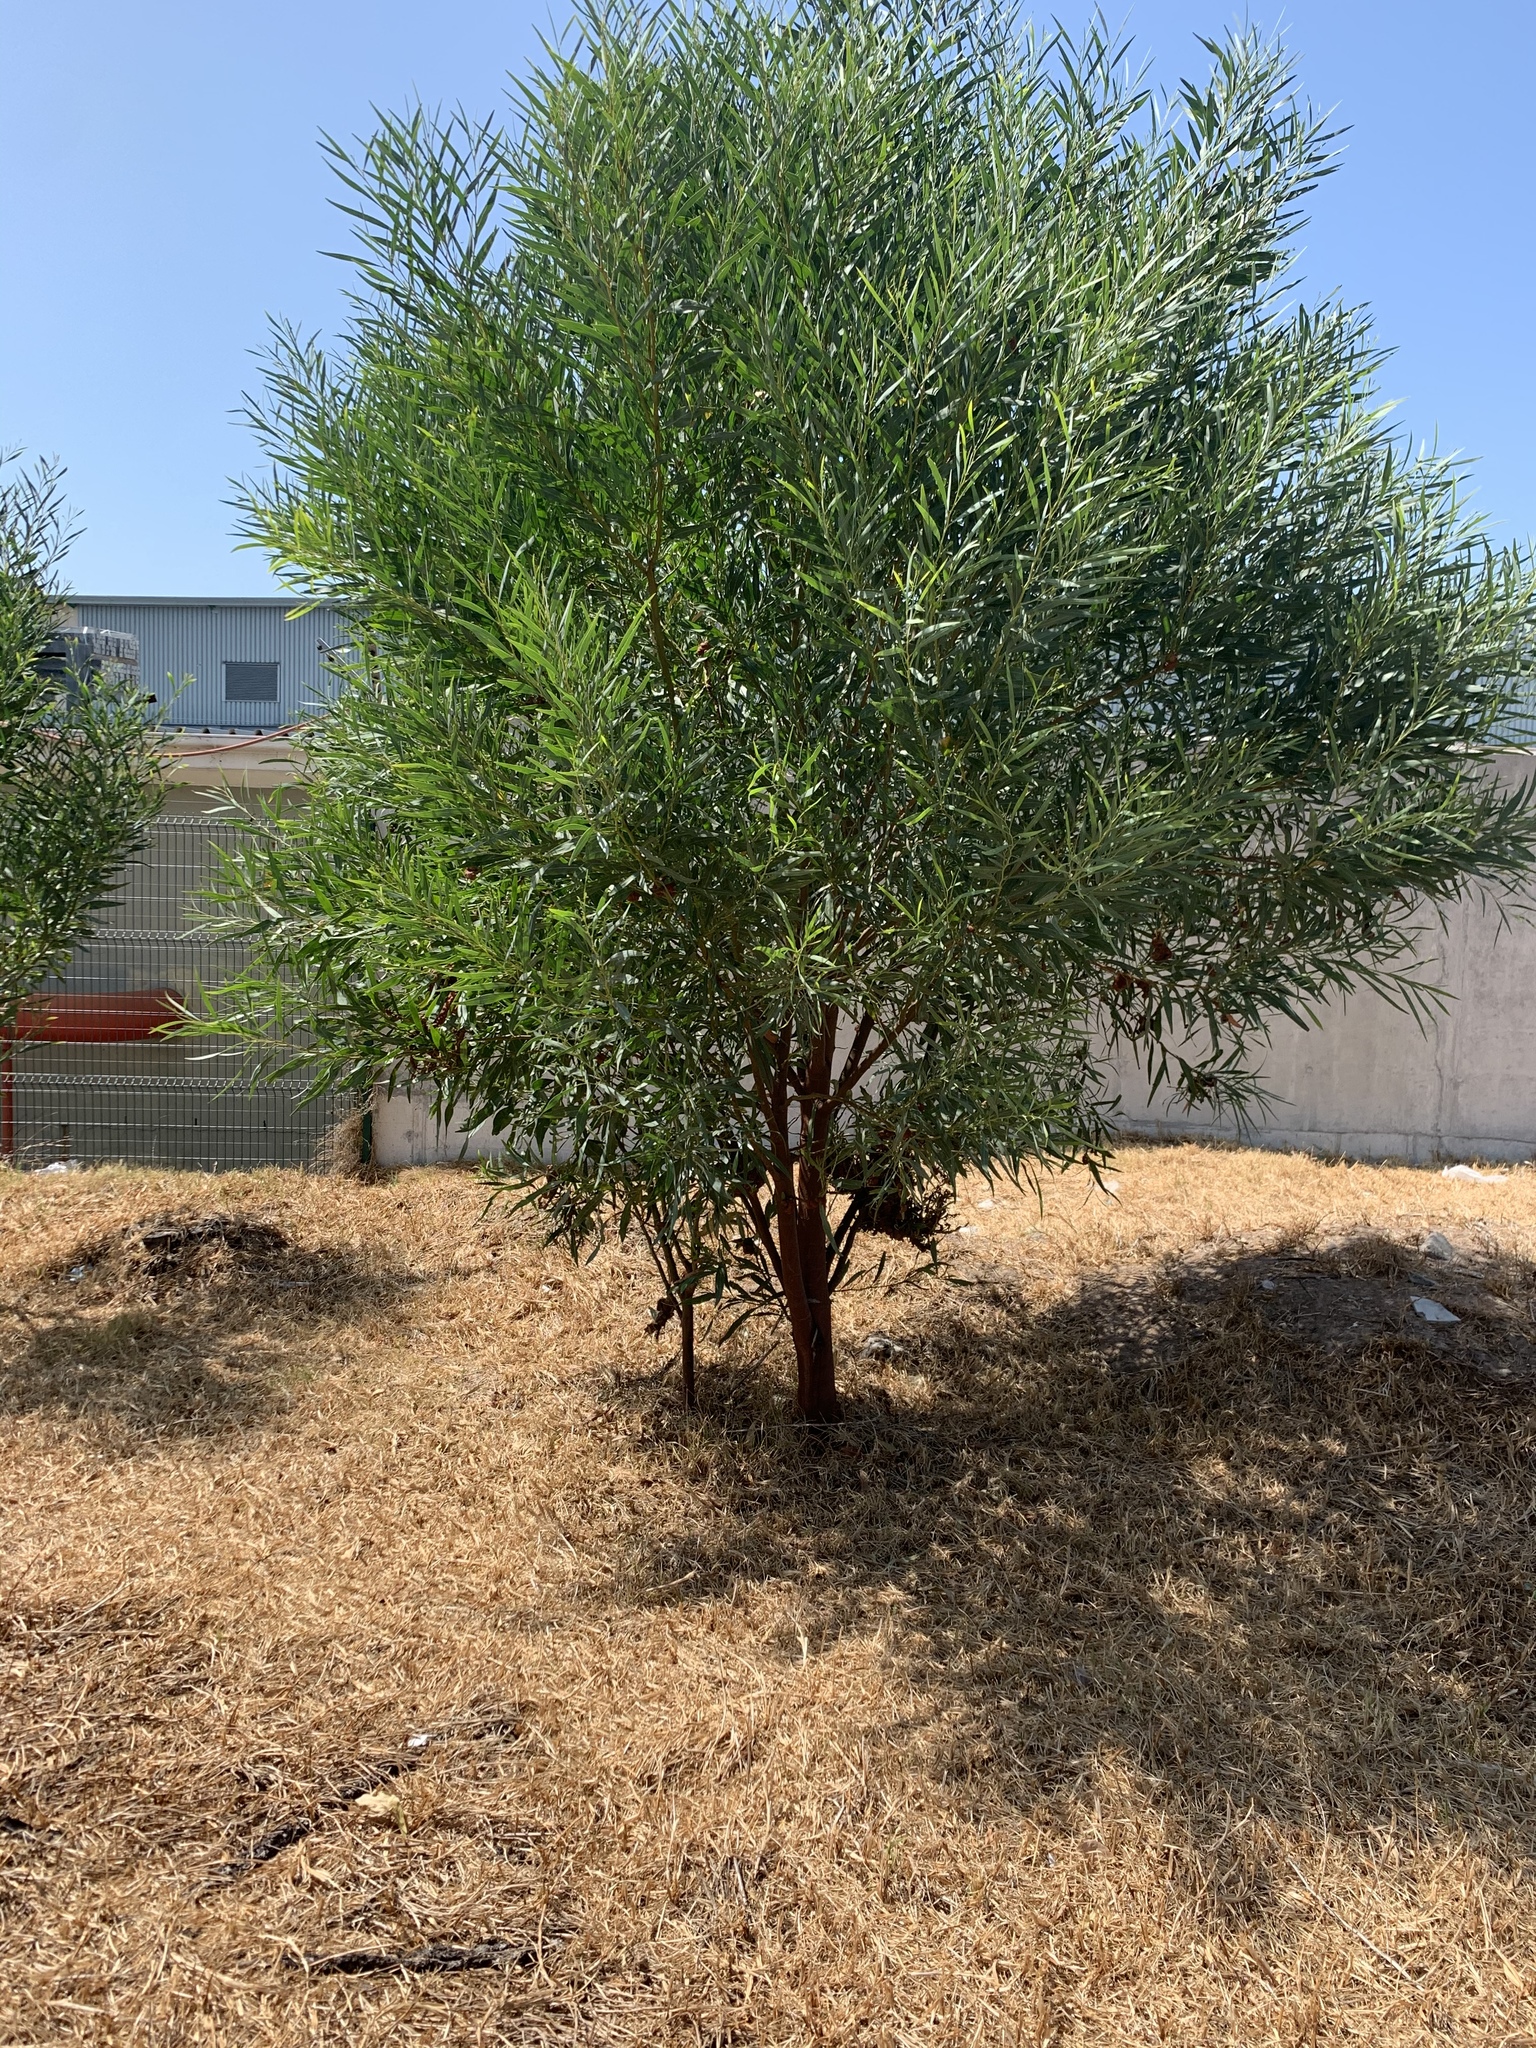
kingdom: Plantae
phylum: Tracheophyta
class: Magnoliopsida
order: Fabales
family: Fabaceae
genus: Acacia
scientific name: Acacia saligna
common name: Orange wattle
